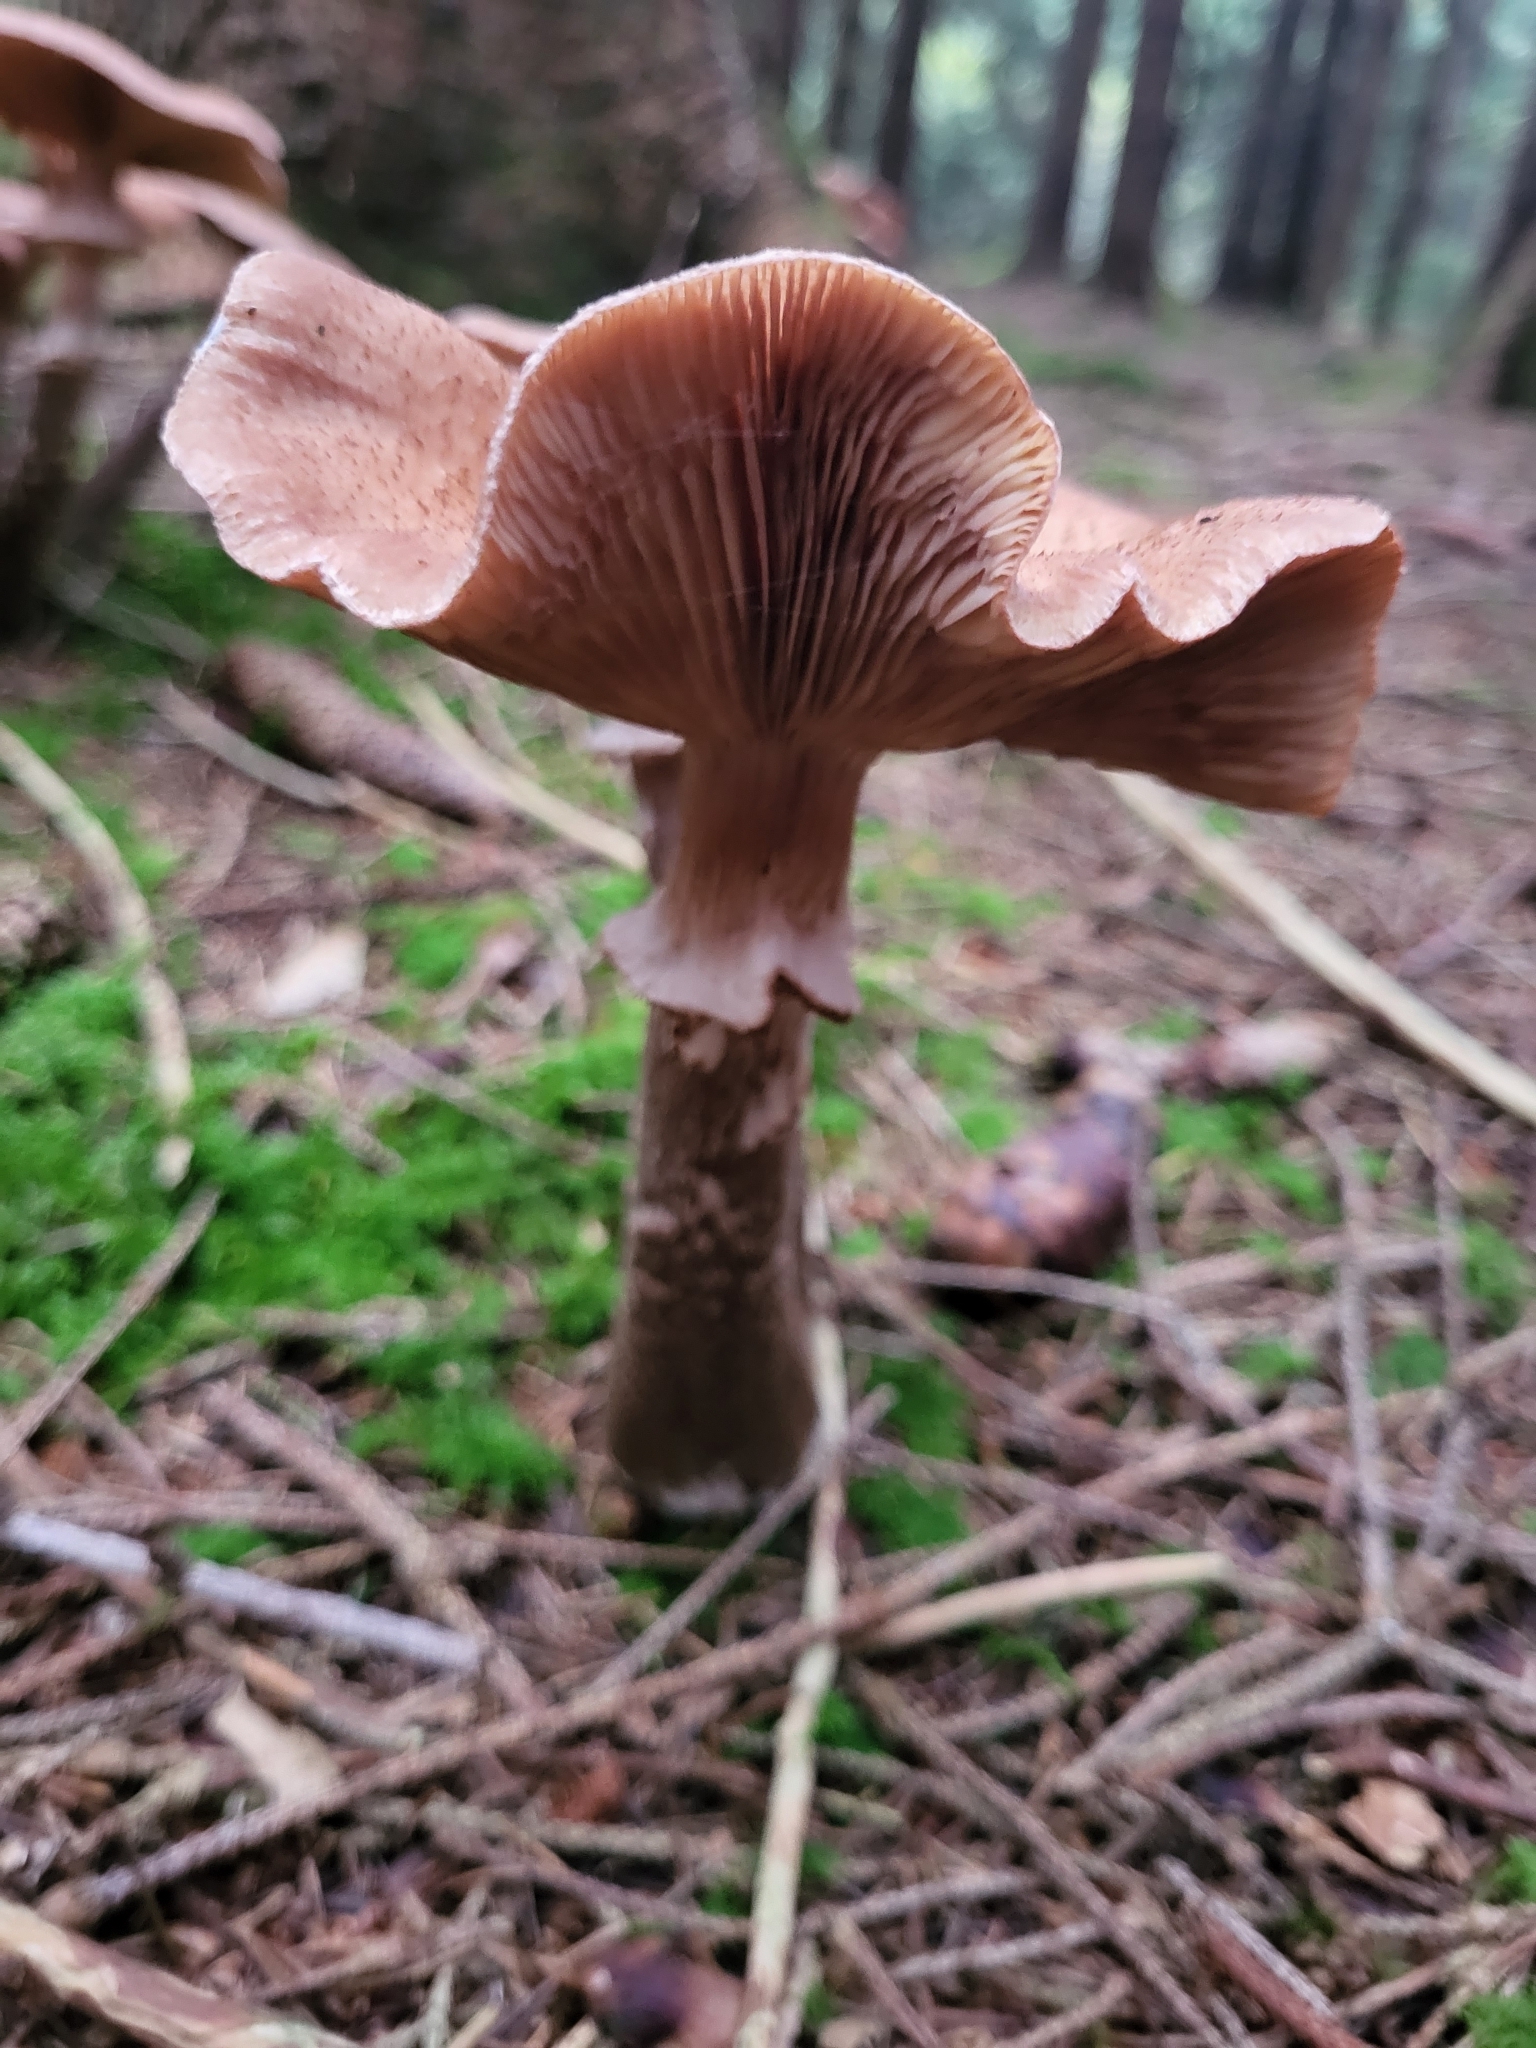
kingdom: Fungi
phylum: Basidiomycota
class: Agaricomycetes
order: Agaricales
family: Physalacriaceae
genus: Armillaria
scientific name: Armillaria ostoyae
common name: Dark honey fungus
